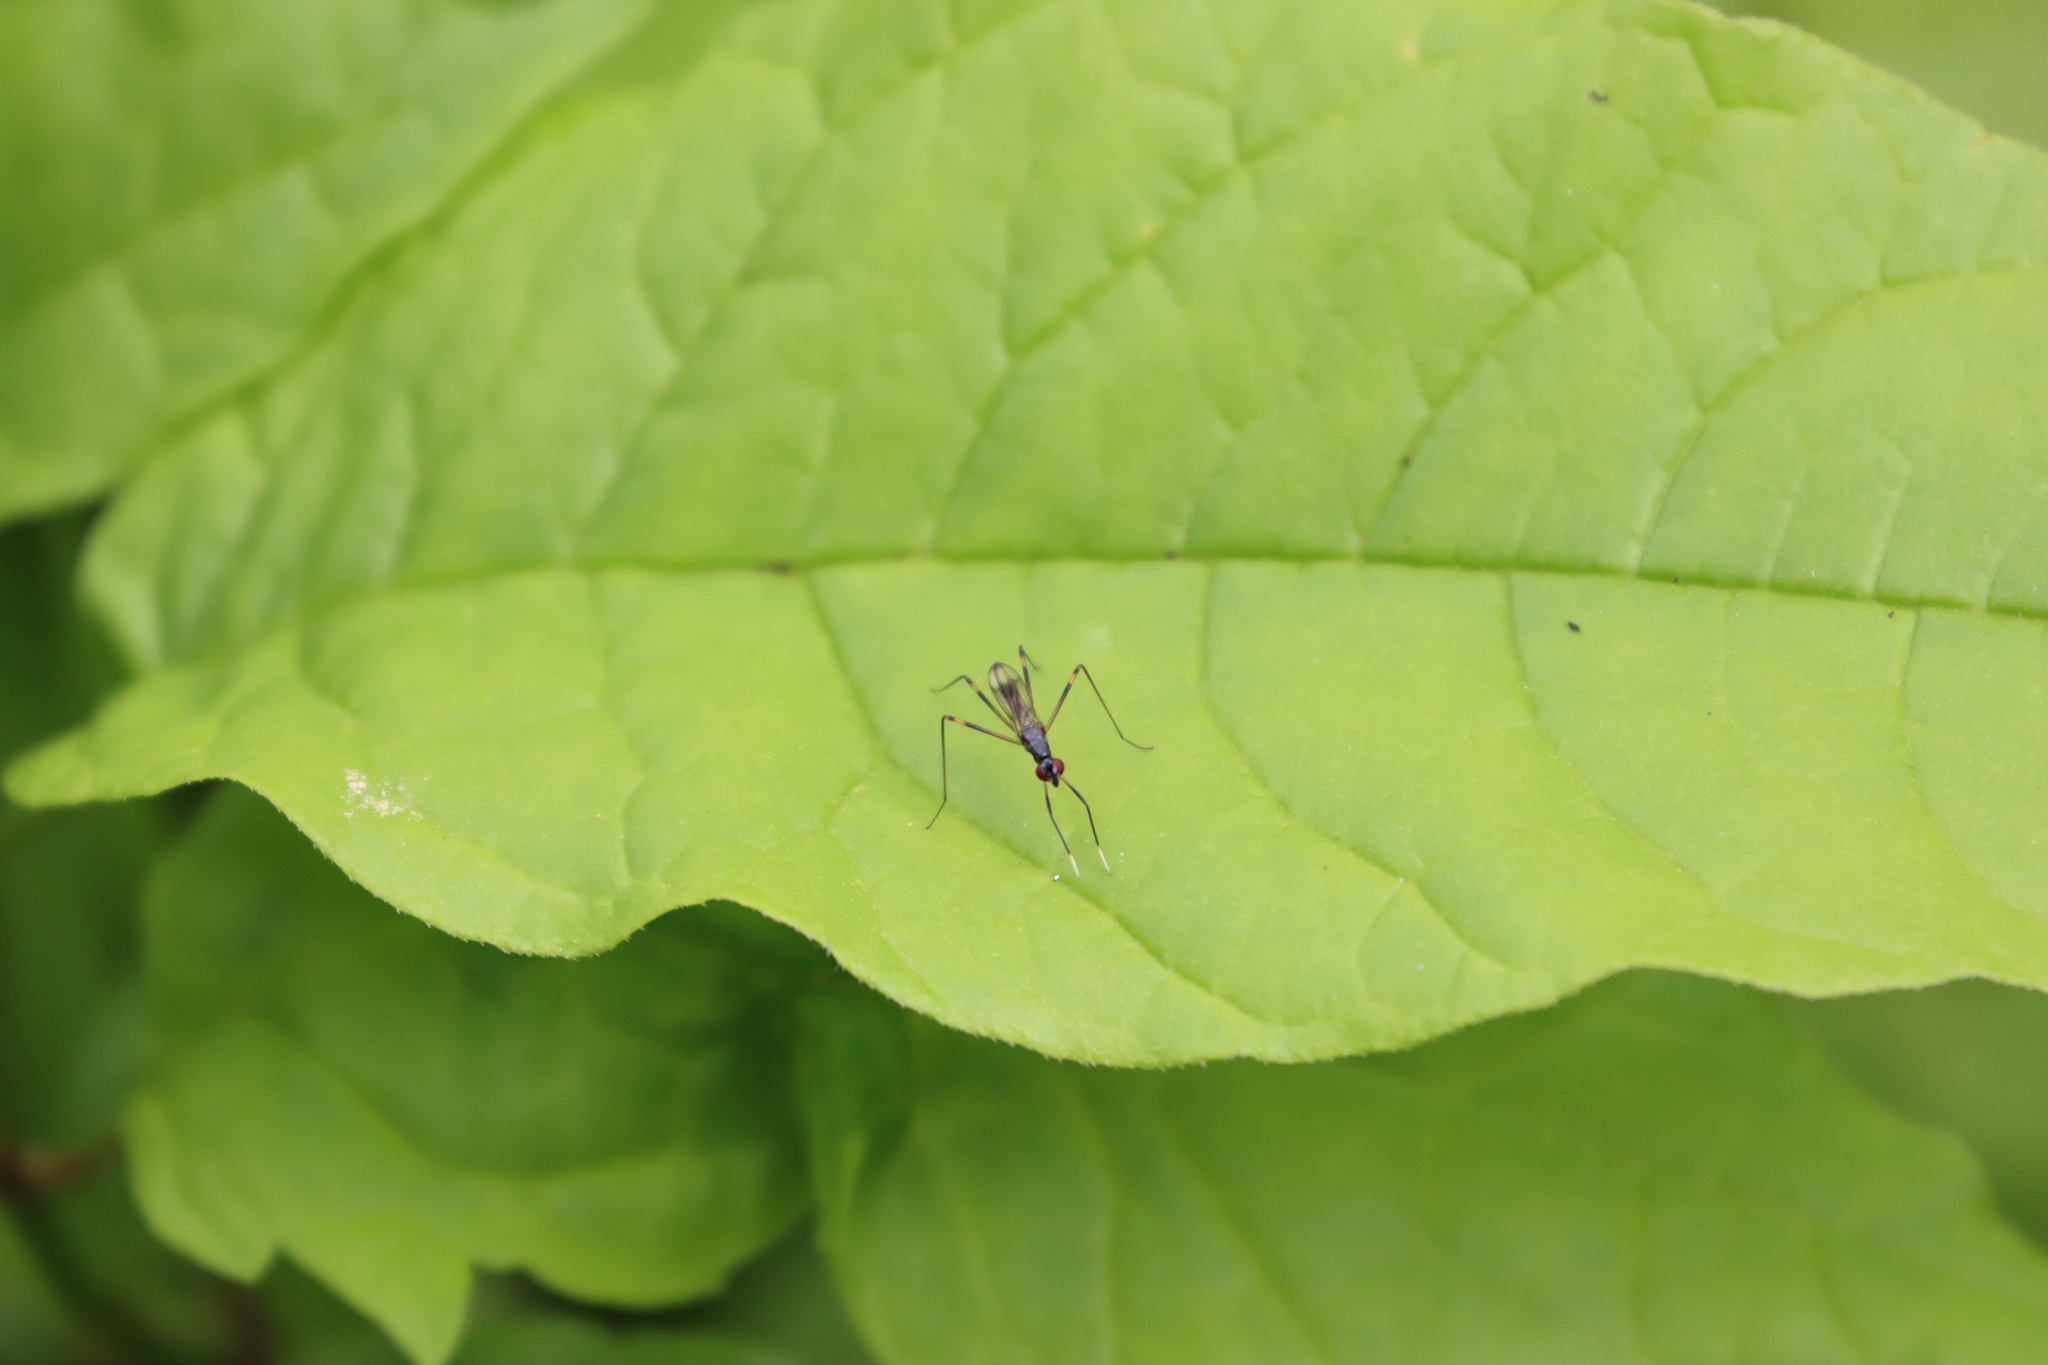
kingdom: Animalia
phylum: Arthropoda
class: Insecta
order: Diptera
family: Micropezidae
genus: Rainieria
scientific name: Rainieria antennaepes
